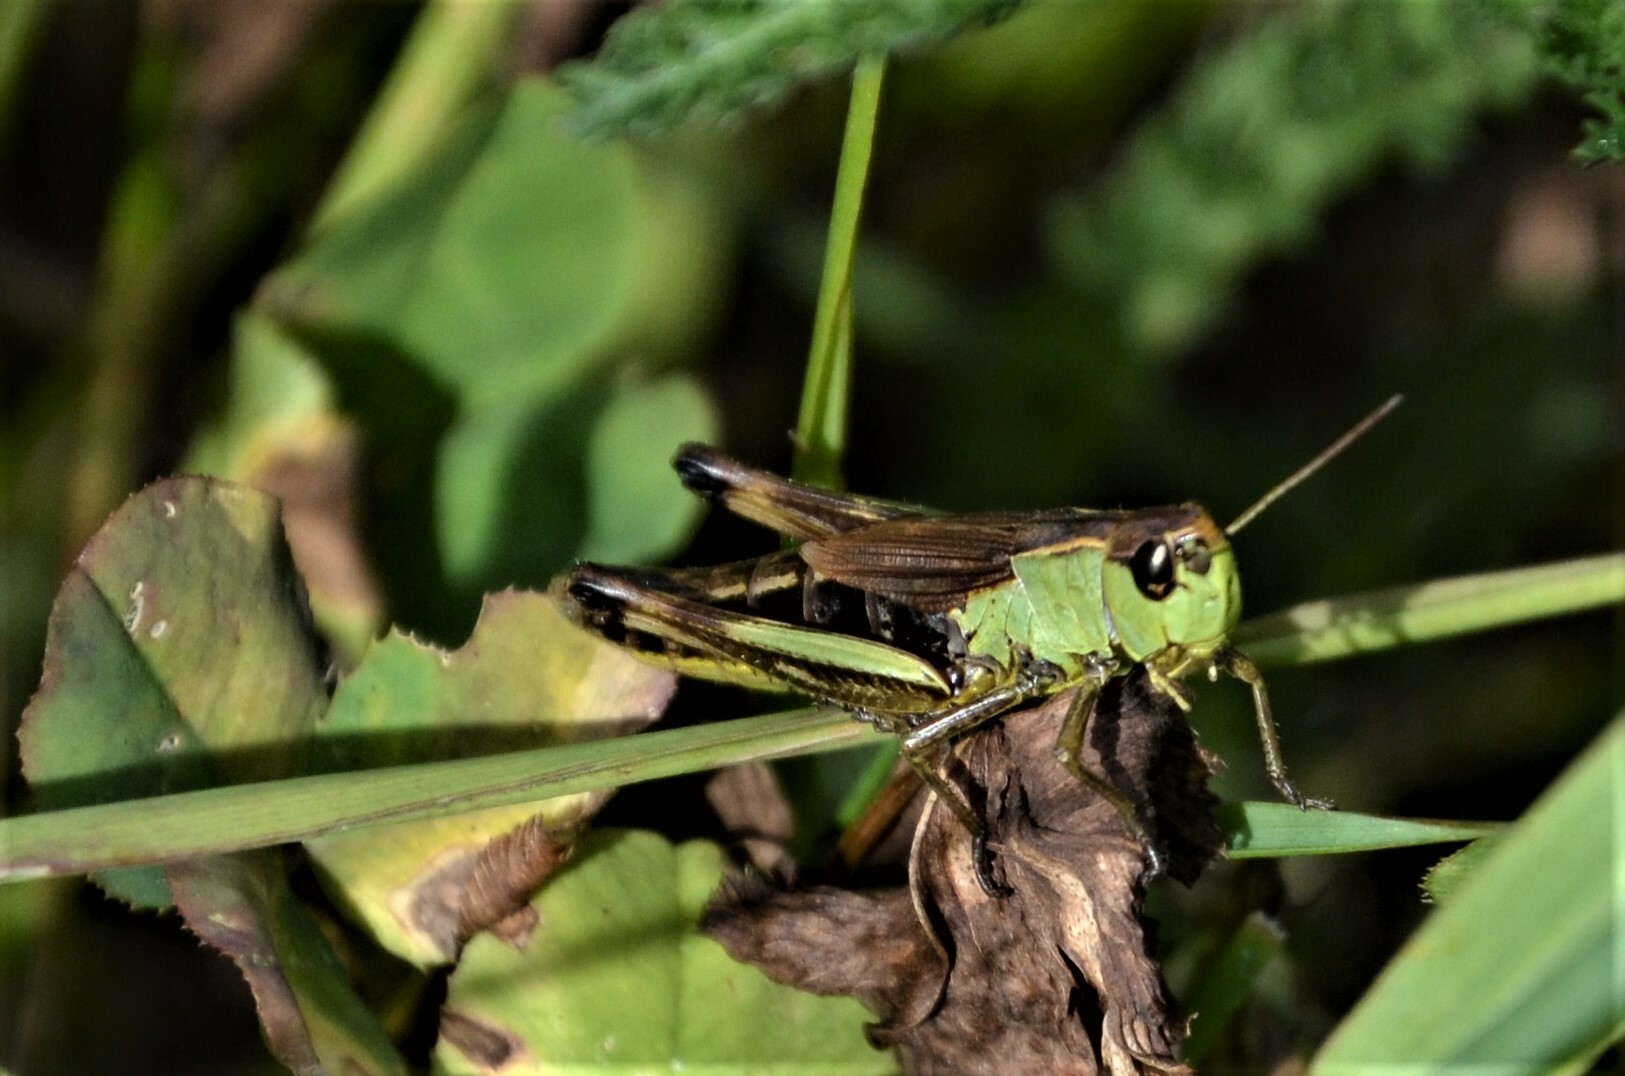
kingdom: Animalia
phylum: Arthropoda
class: Insecta
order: Orthoptera
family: Acrididae
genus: Pseudochorthippus
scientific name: Pseudochorthippus parallelus
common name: Meadow grasshopper
